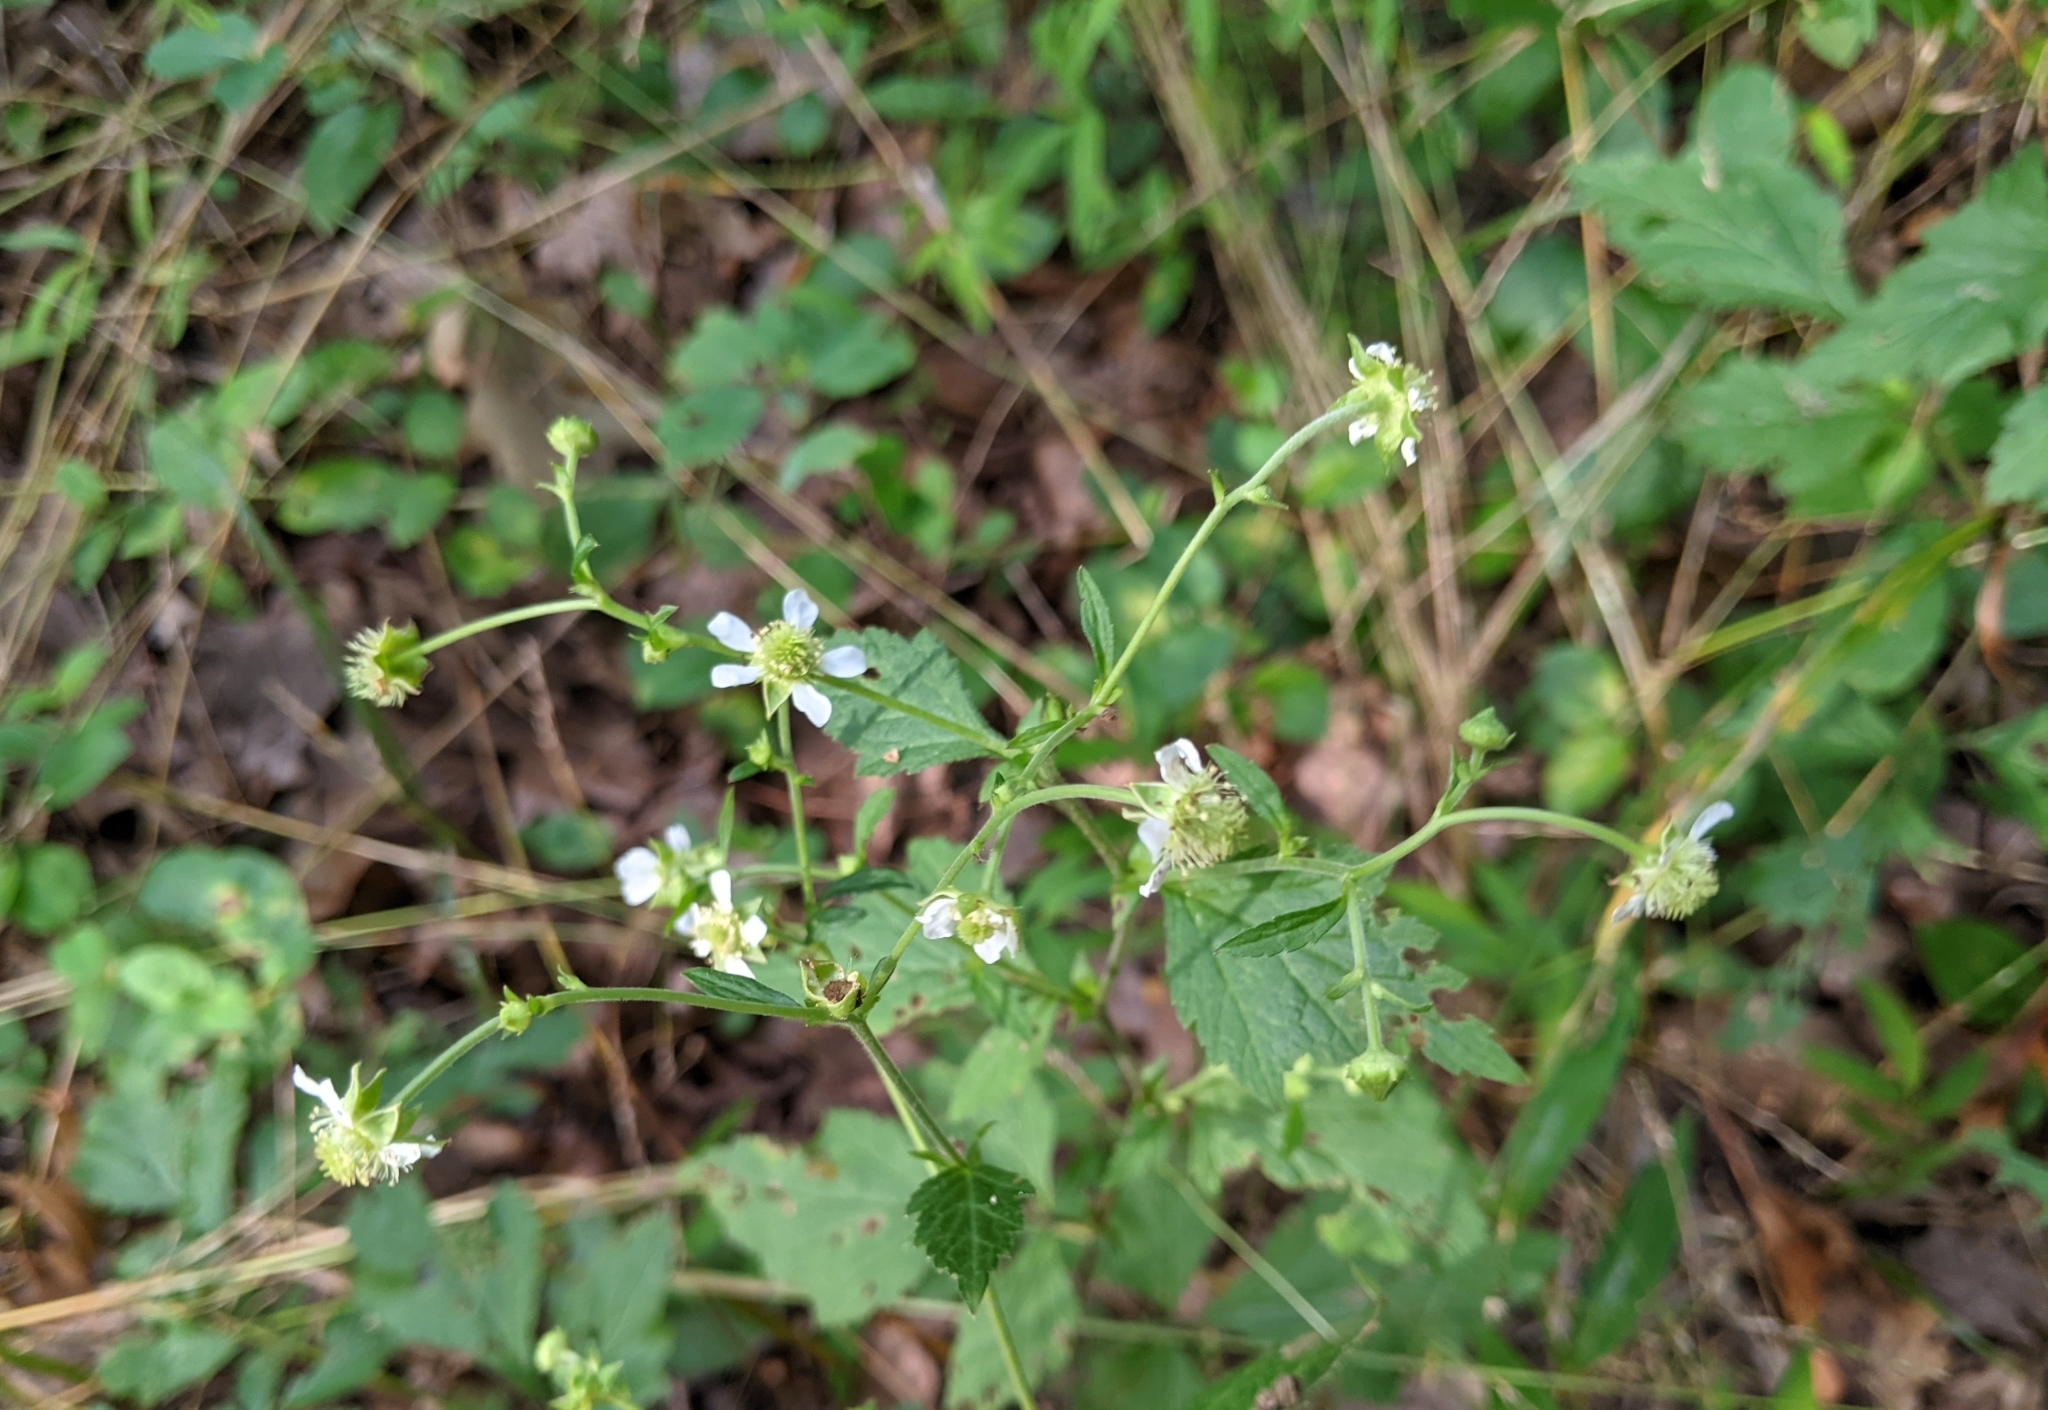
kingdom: Plantae
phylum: Tracheophyta
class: Magnoliopsida
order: Rosales
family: Rosaceae
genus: Geum
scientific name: Geum canadense
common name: White avens
